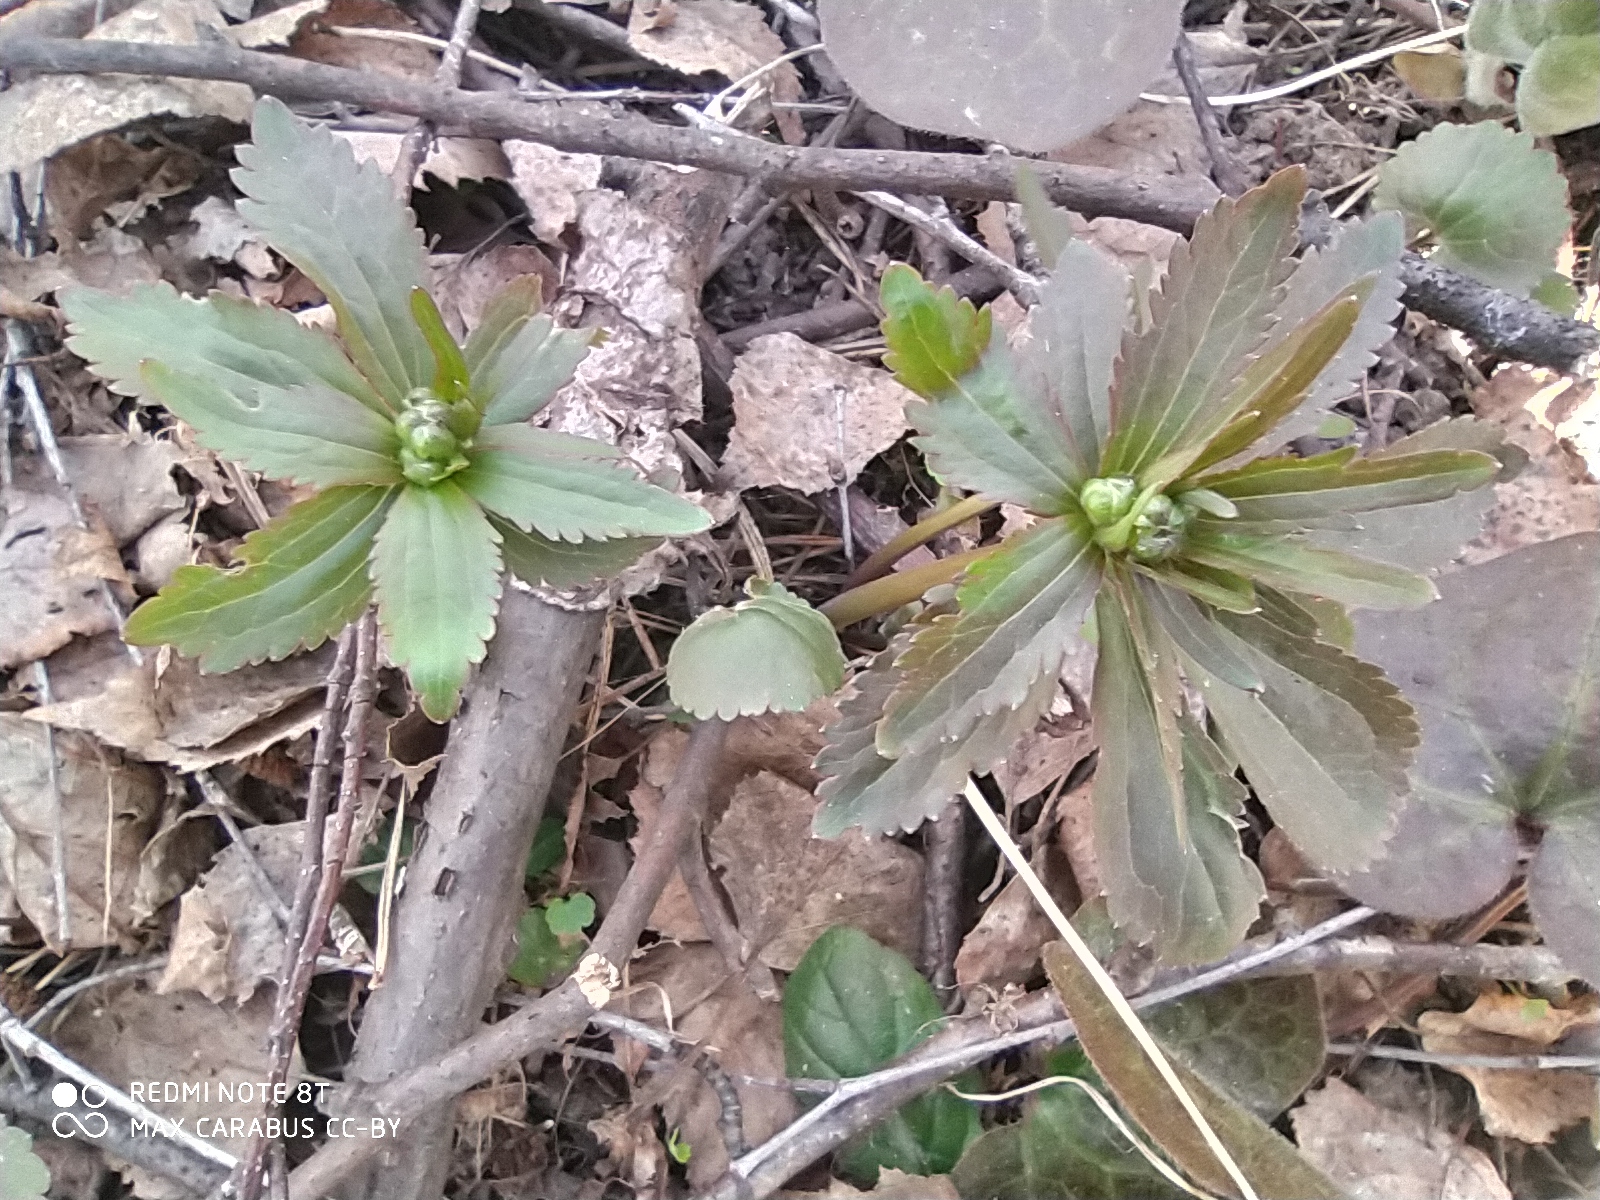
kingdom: Plantae
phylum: Tracheophyta
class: Magnoliopsida
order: Ranunculales
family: Ranunculaceae
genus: Ranunculus
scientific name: Ranunculus cassubicus
